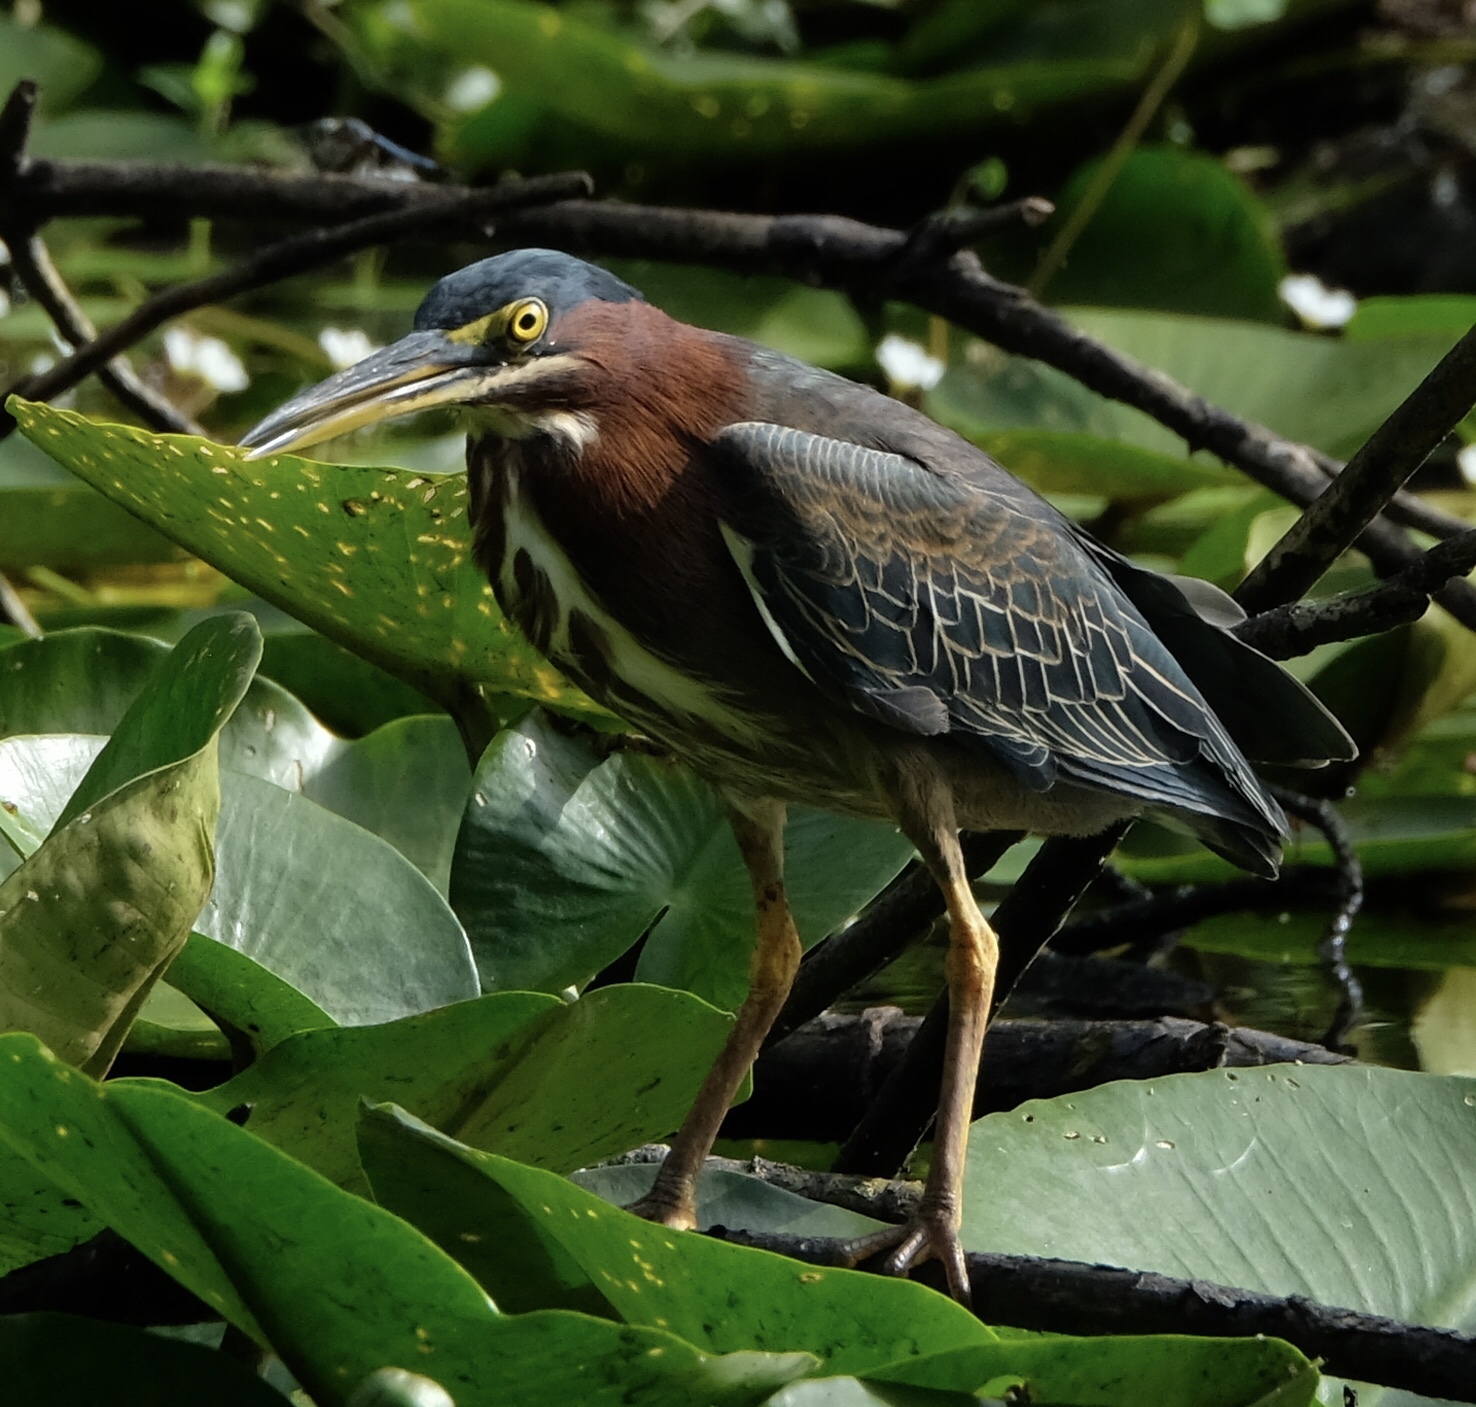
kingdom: Animalia
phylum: Chordata
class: Aves
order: Pelecaniformes
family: Ardeidae
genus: Butorides
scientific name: Butorides virescens
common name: Green heron
